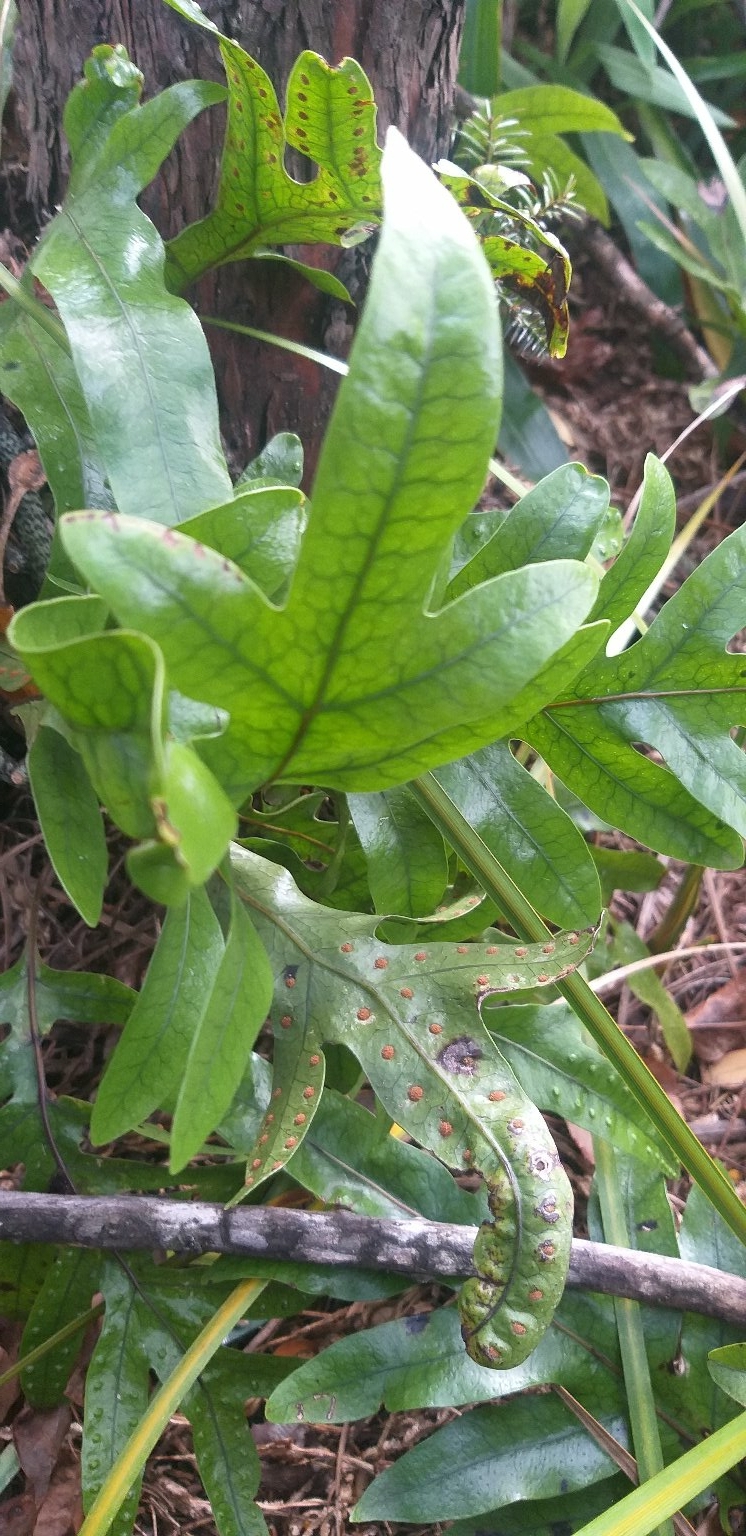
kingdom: Plantae
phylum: Tracheophyta
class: Polypodiopsida
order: Polypodiales
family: Polypodiaceae
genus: Lecanopteris
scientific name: Lecanopteris pustulata
